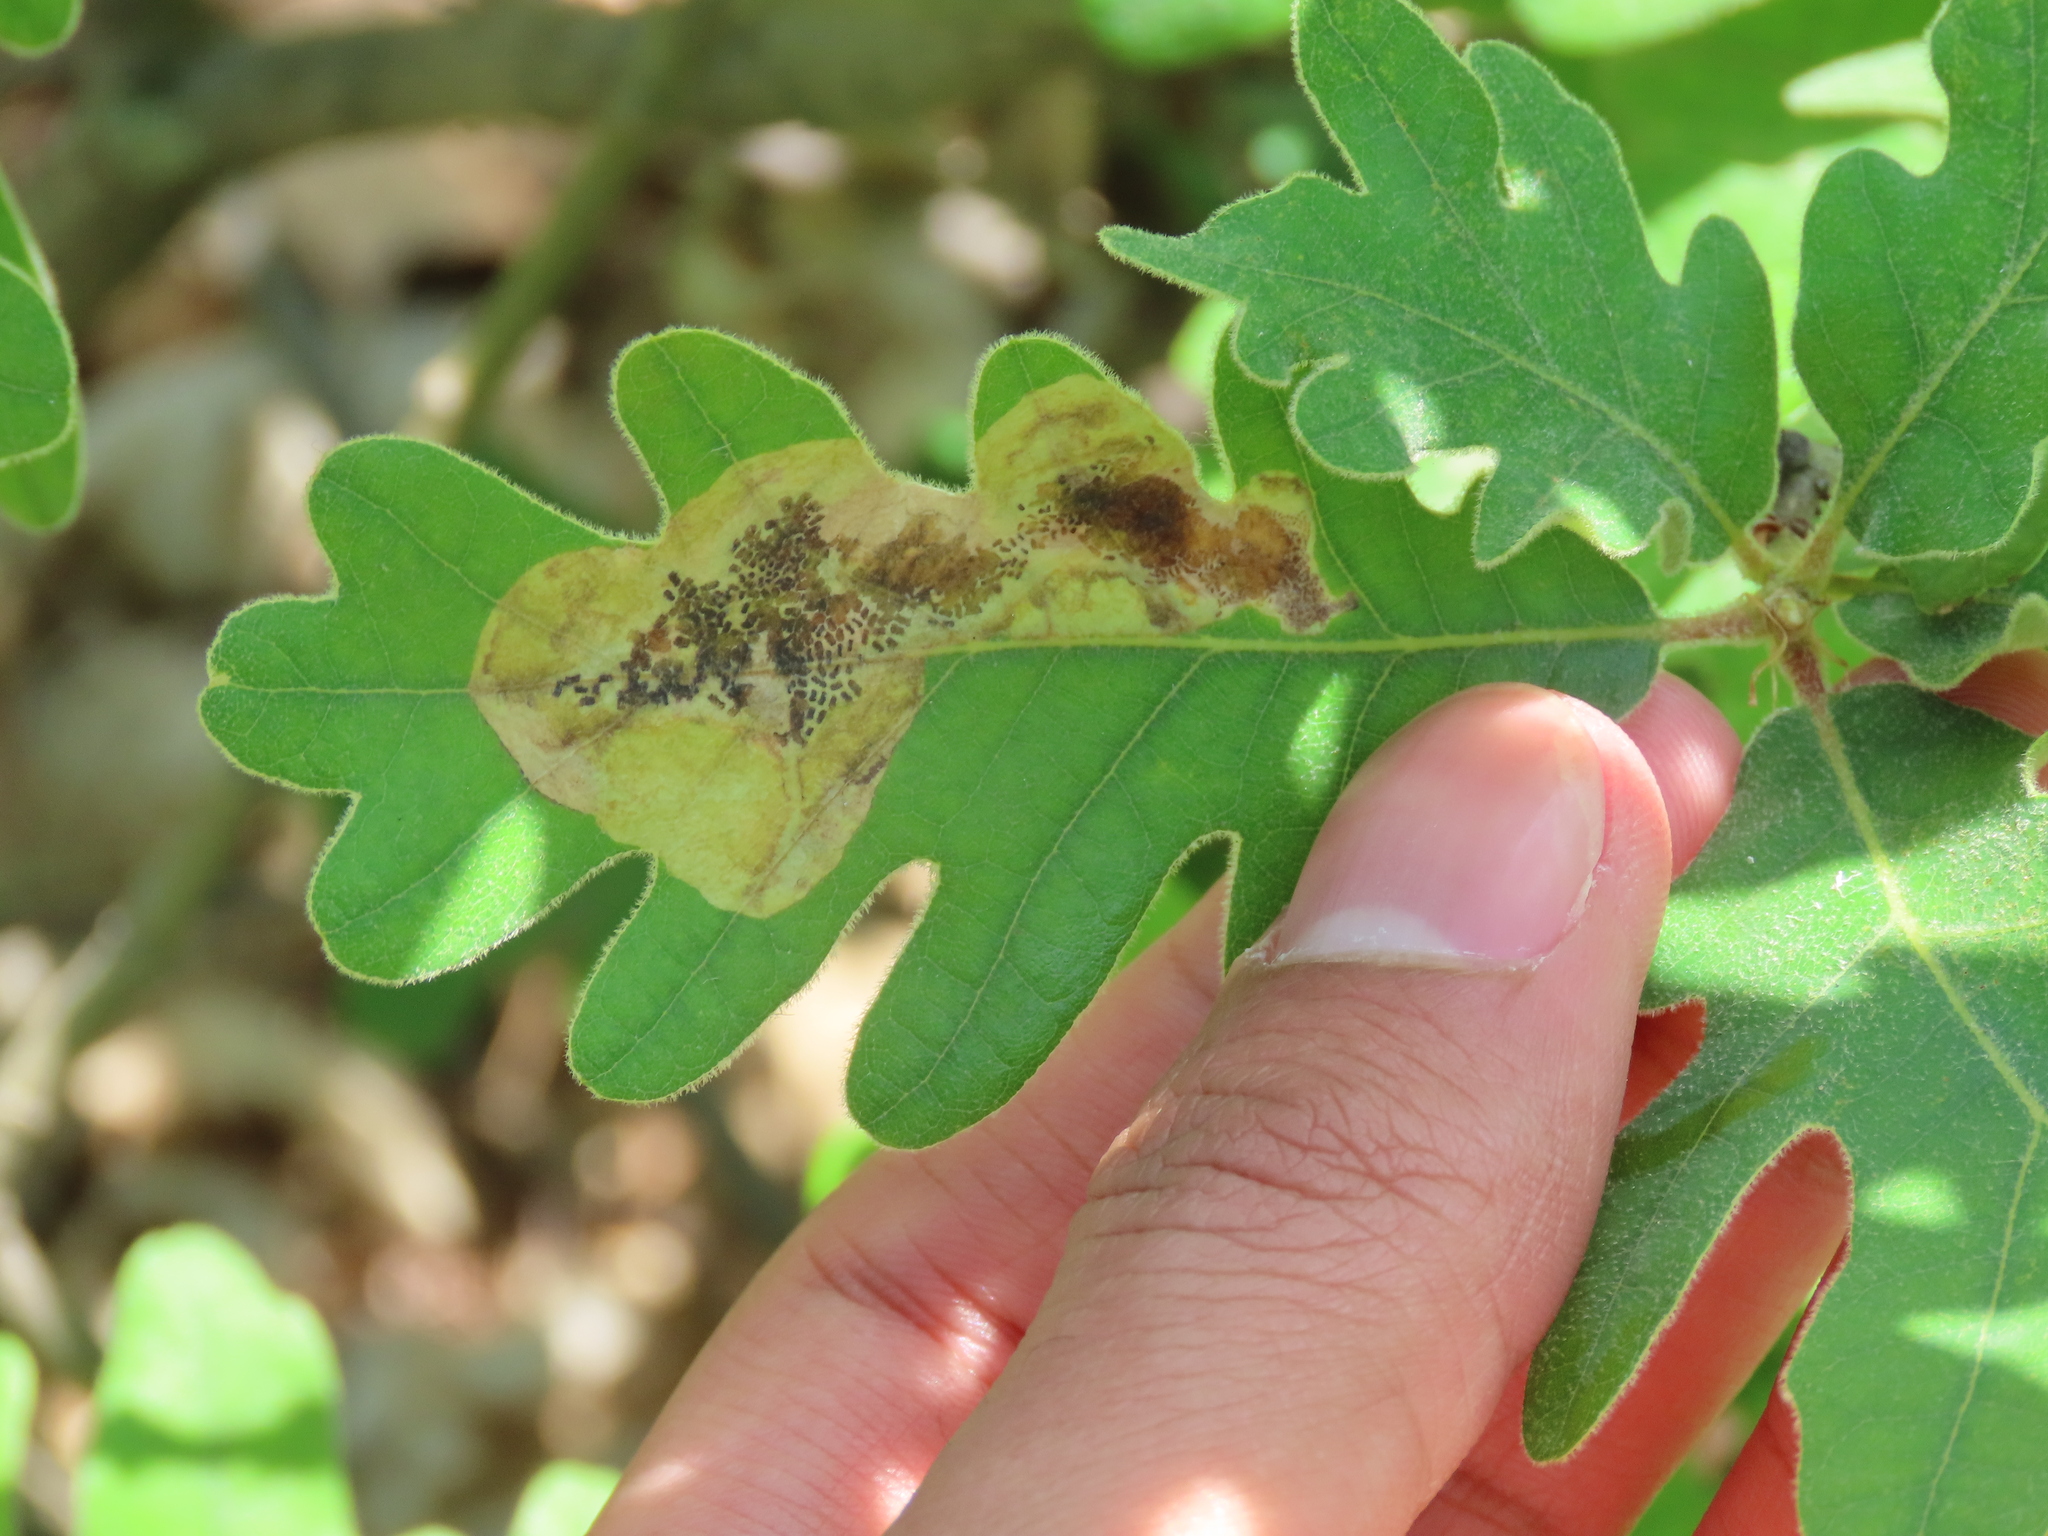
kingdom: Animalia
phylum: Arthropoda
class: Insecta
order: Hymenoptera
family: Tenthredinidae
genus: Profenusa
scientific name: Profenusa pygmaea
